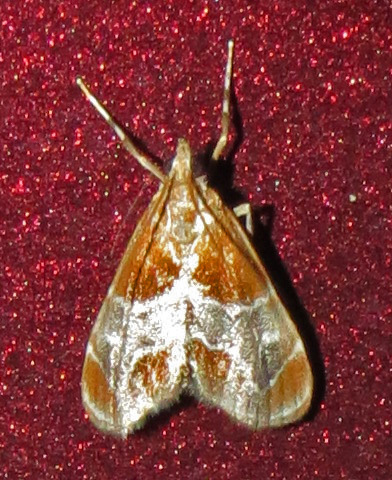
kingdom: Animalia
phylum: Arthropoda
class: Insecta
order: Lepidoptera
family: Crambidae
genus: Chalcoela
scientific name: Chalcoela pegasalis
